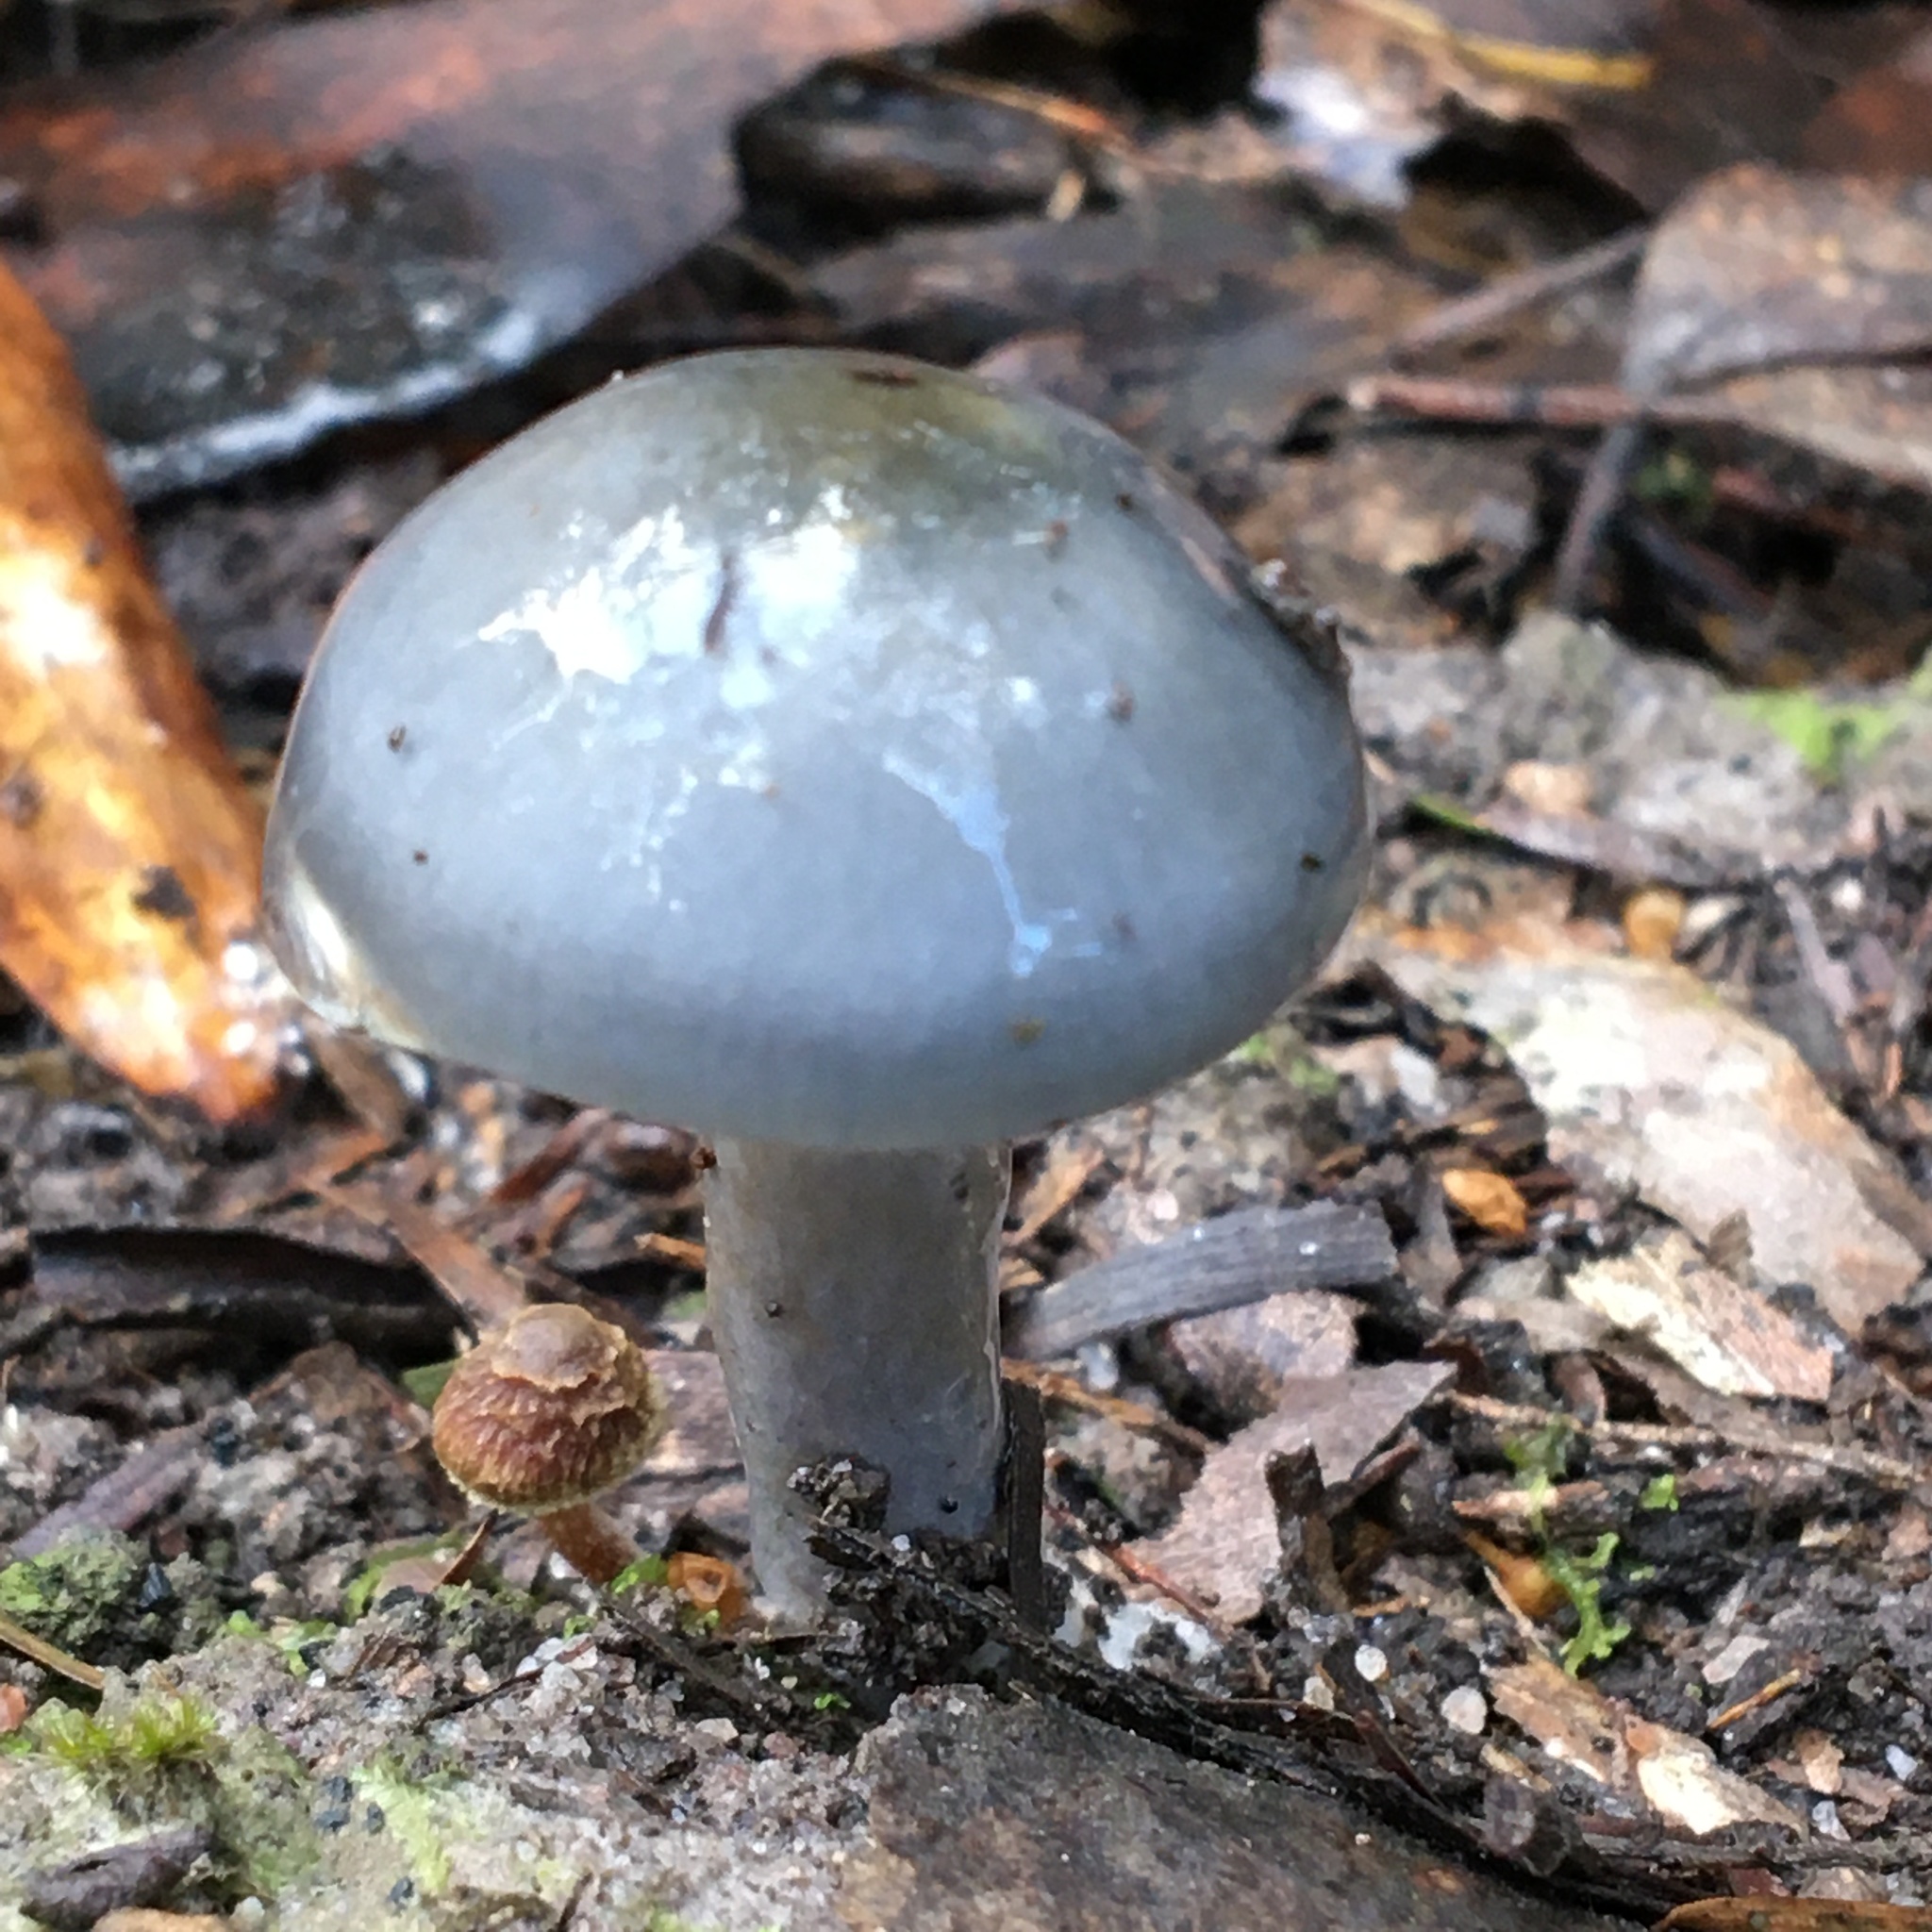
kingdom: Fungi
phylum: Basidiomycota
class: Agaricomycetes
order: Agaricales
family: Cortinariaceae
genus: Cortinarius
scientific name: Cortinarius rotundisporus
